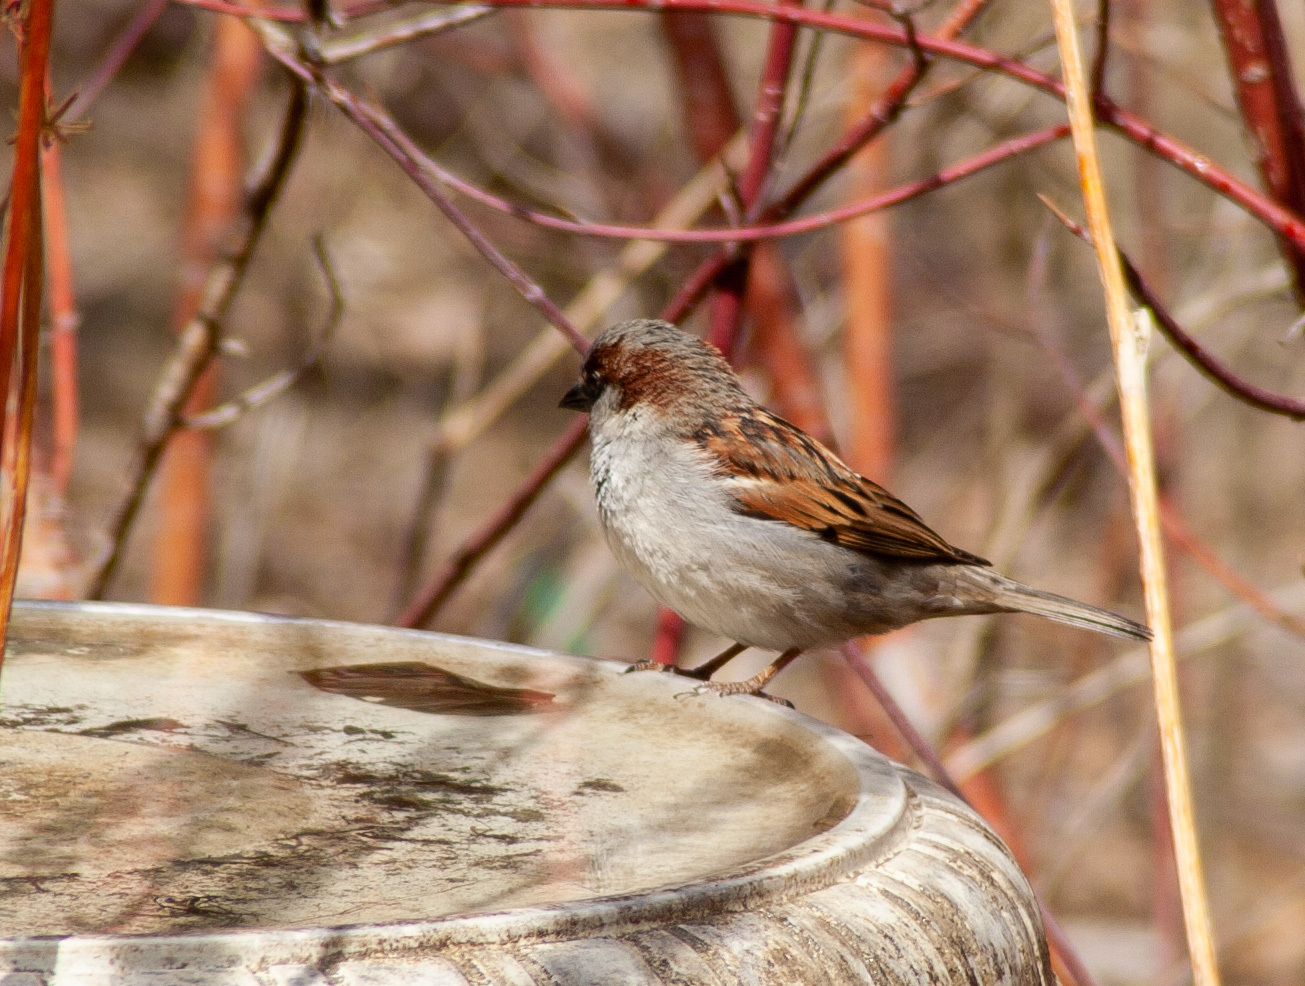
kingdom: Animalia
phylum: Chordata
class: Aves
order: Passeriformes
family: Passeridae
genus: Passer
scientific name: Passer domesticus
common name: House sparrow
